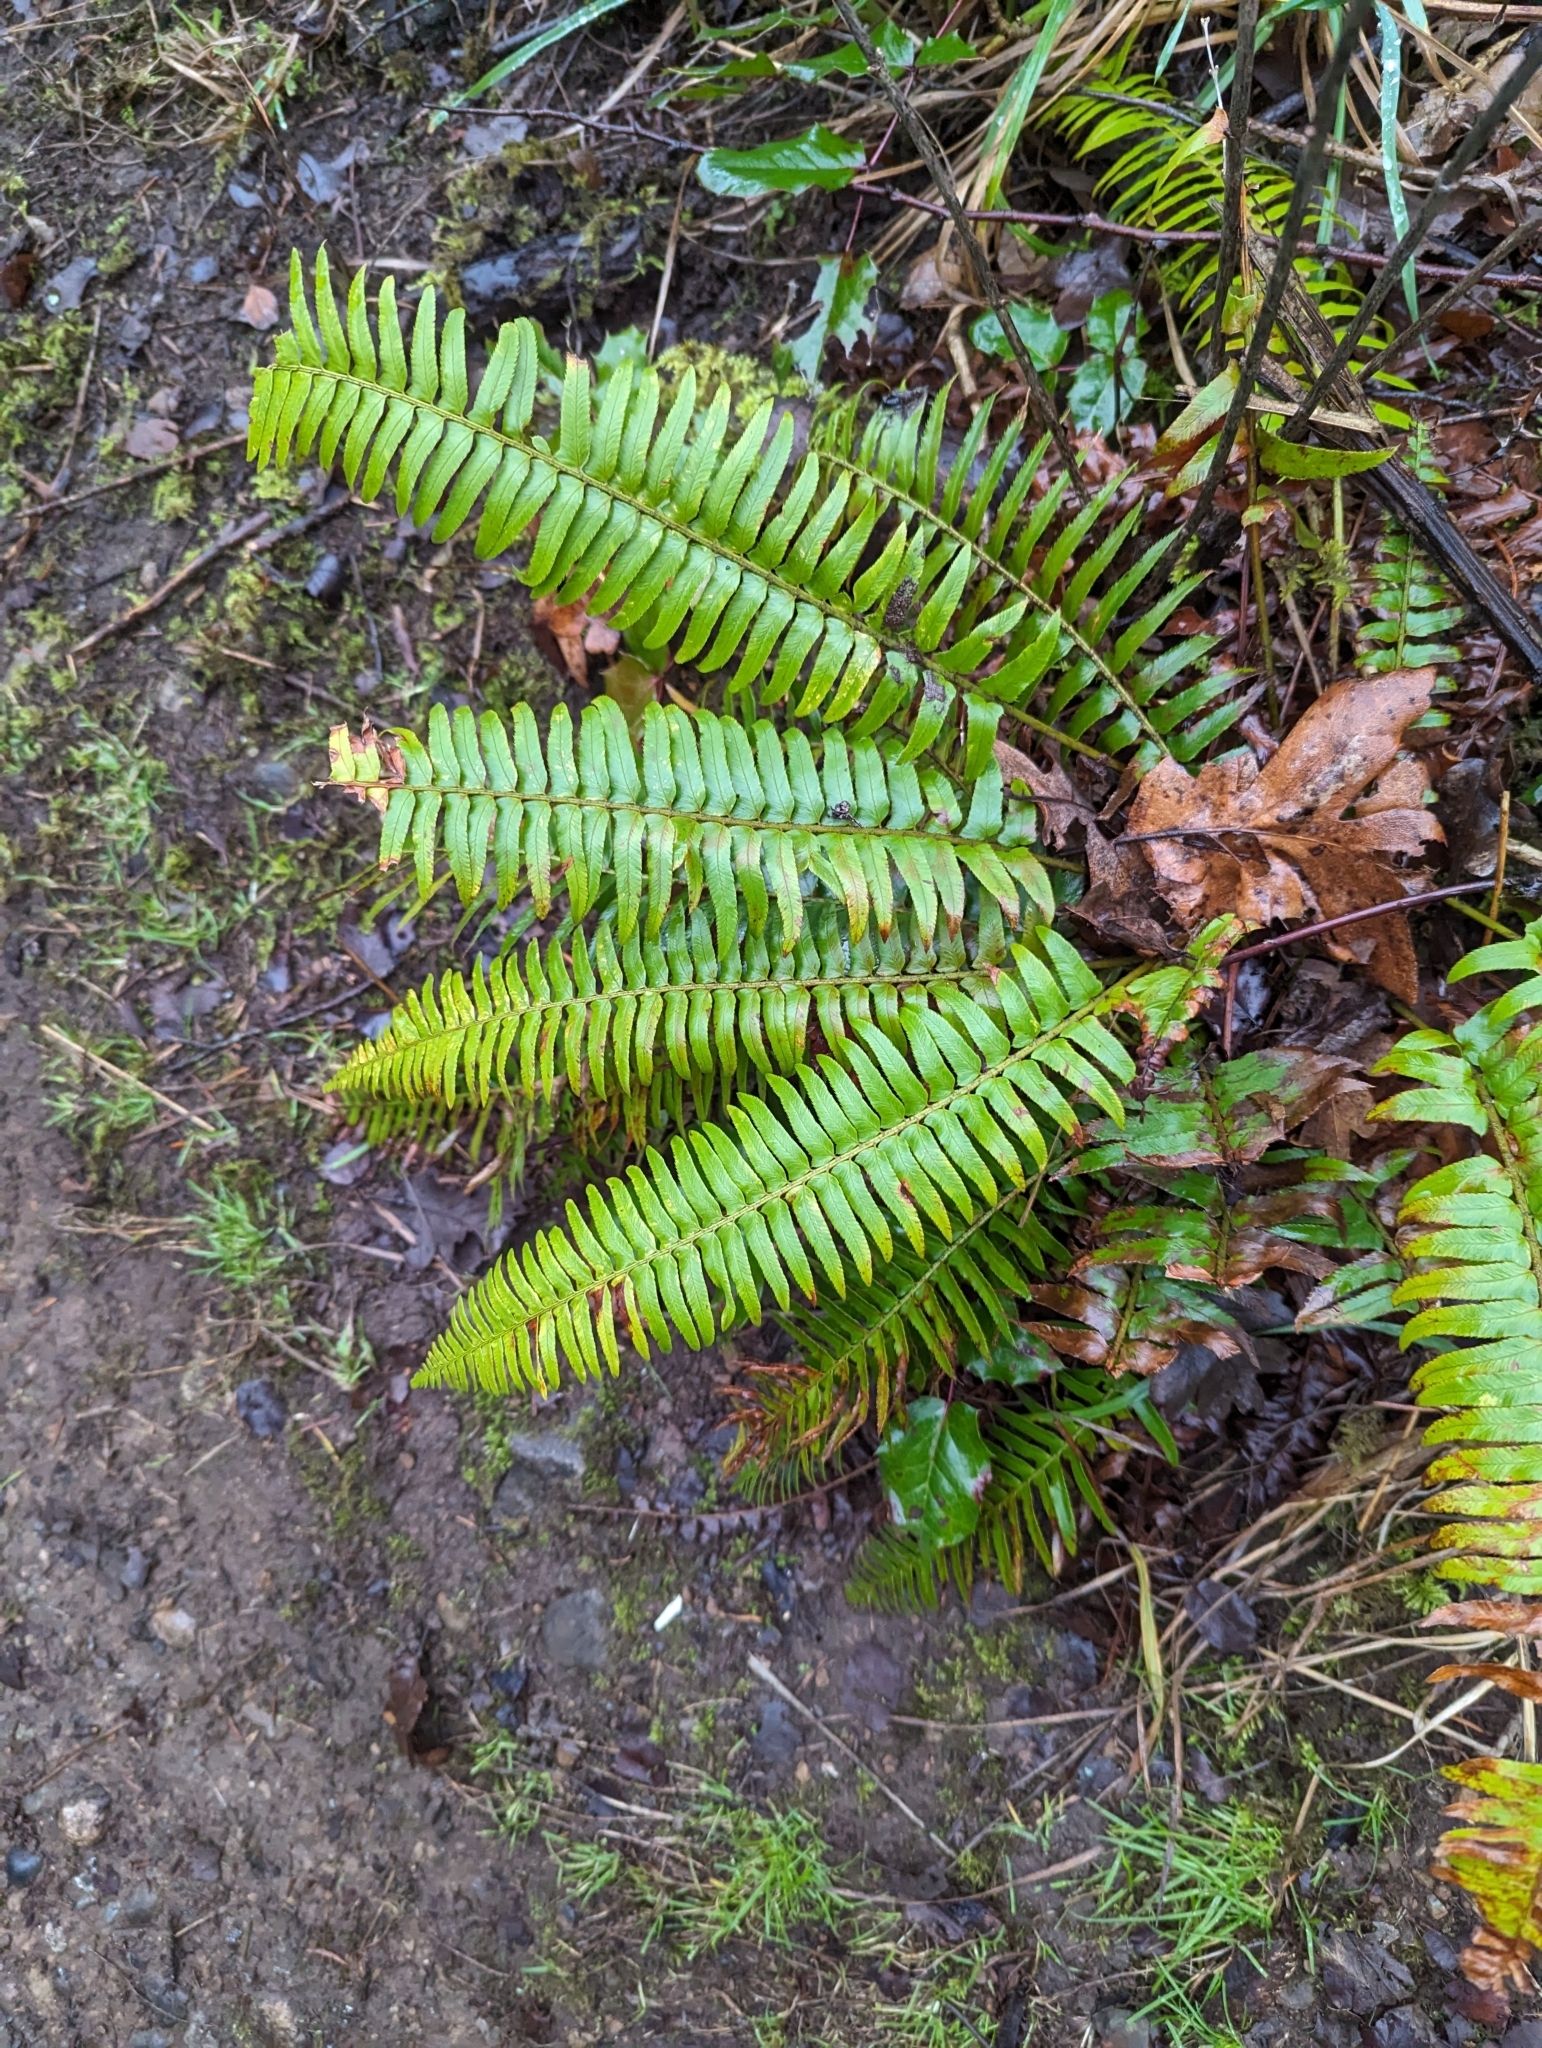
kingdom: Plantae
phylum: Tracheophyta
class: Polypodiopsida
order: Polypodiales
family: Dryopteridaceae
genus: Polystichum
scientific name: Polystichum munitum
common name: Western sword-fern
